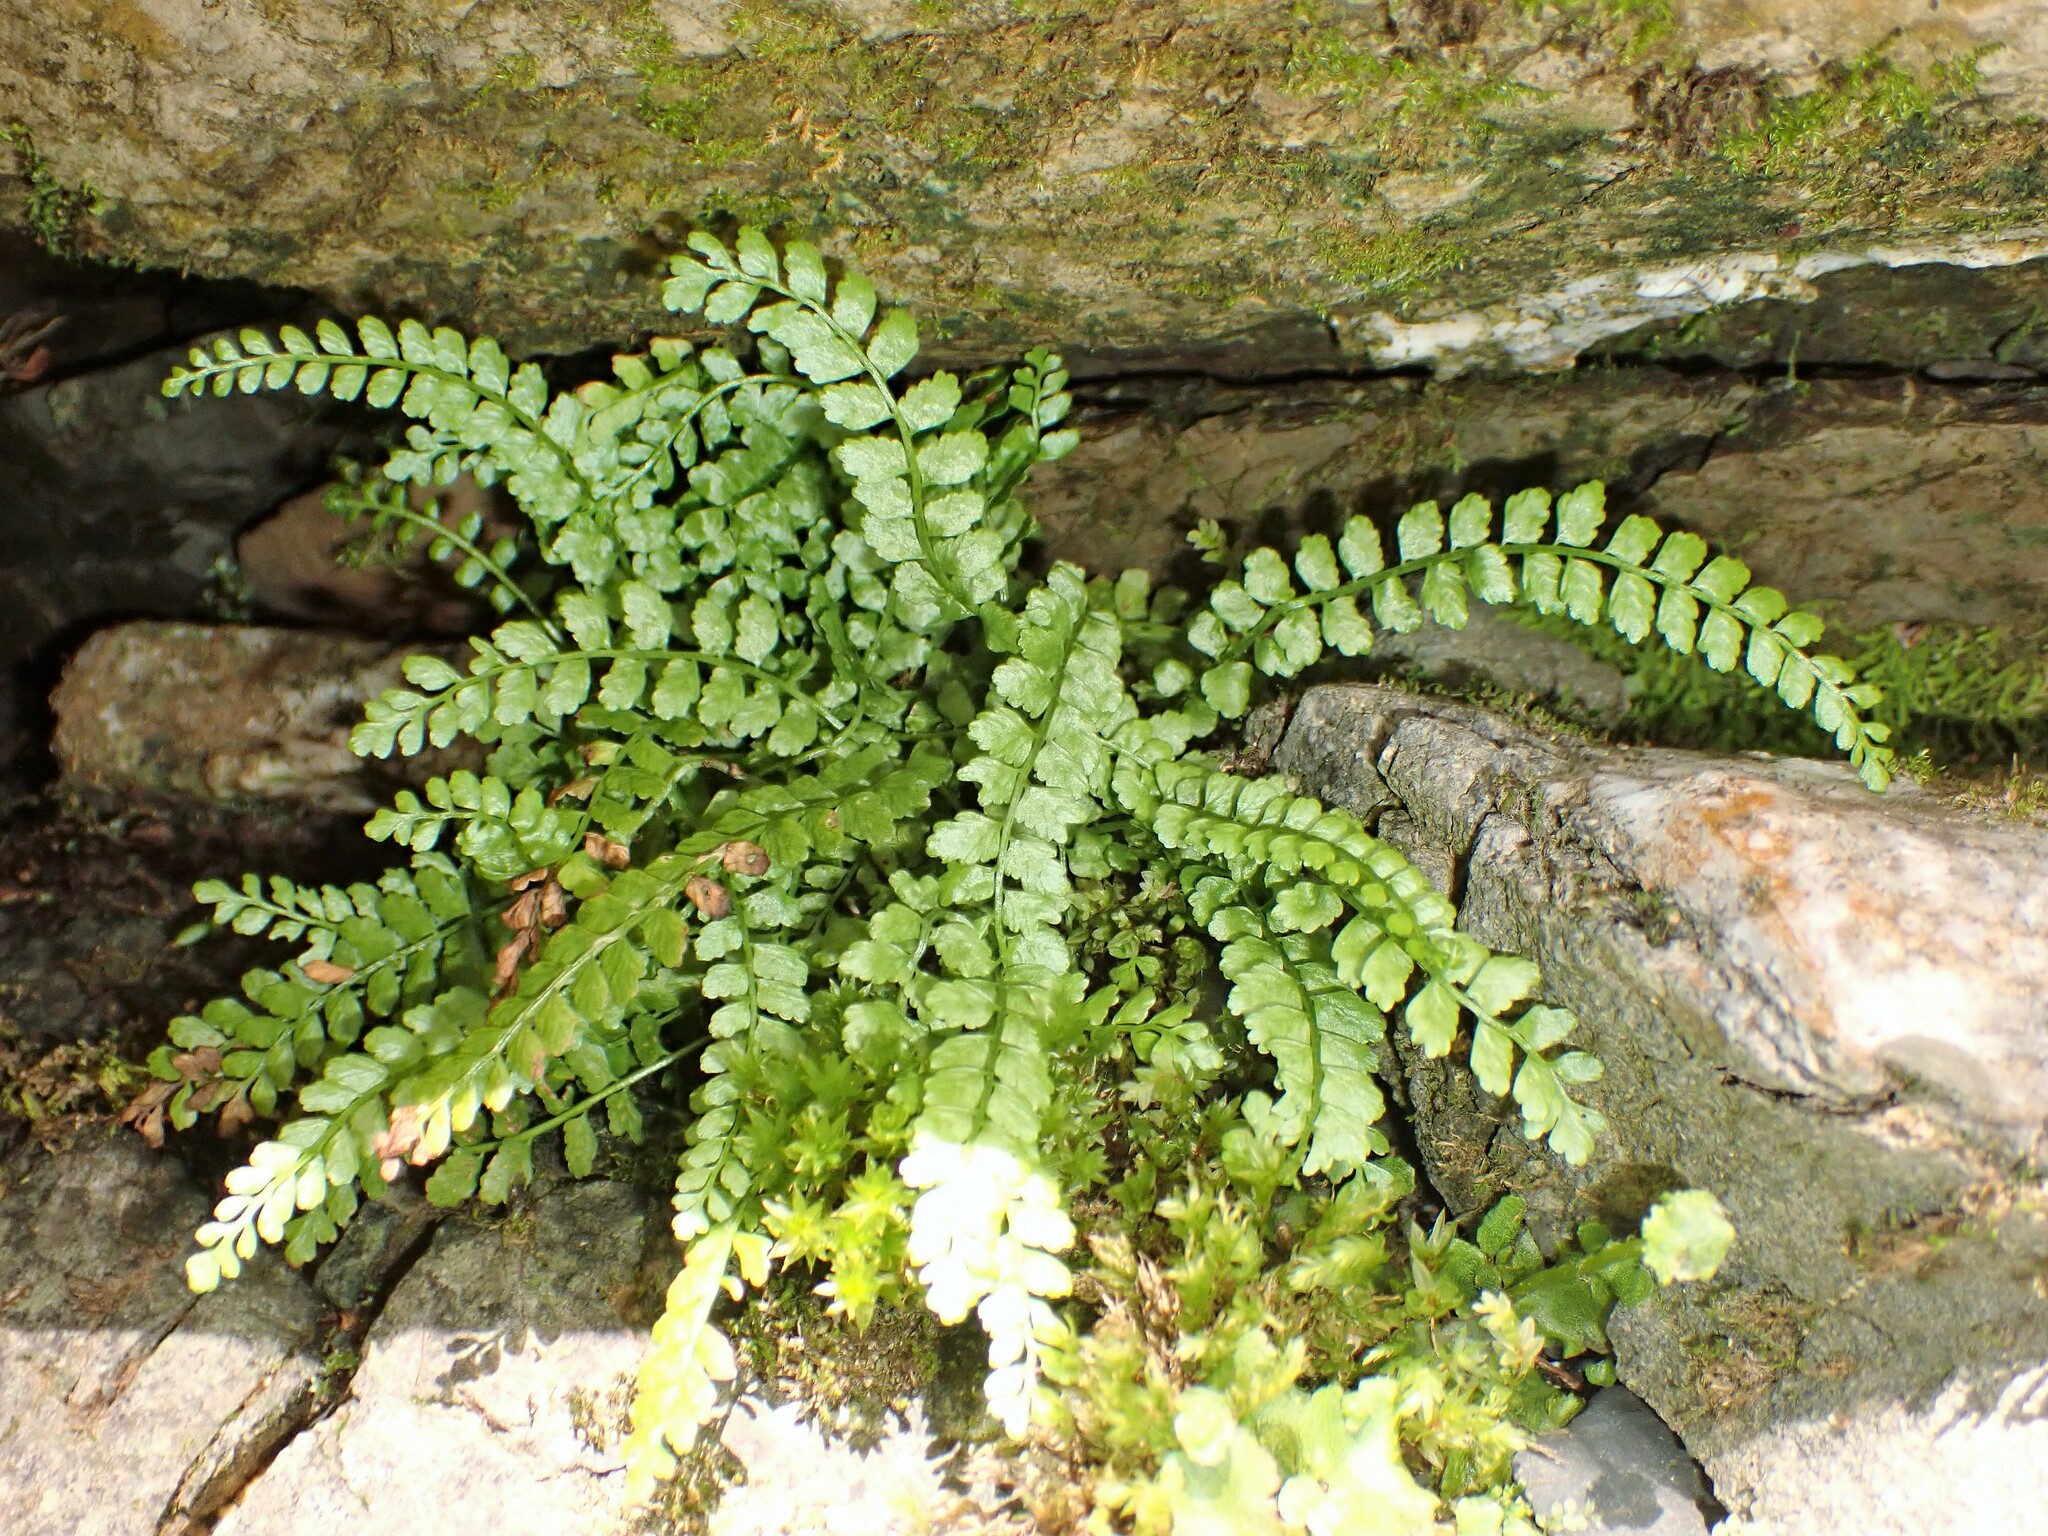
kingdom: Plantae
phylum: Tracheophyta
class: Polypodiopsida
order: Polypodiales
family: Aspleniaceae
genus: Asplenium
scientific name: Asplenium viride
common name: Green spleenwort
